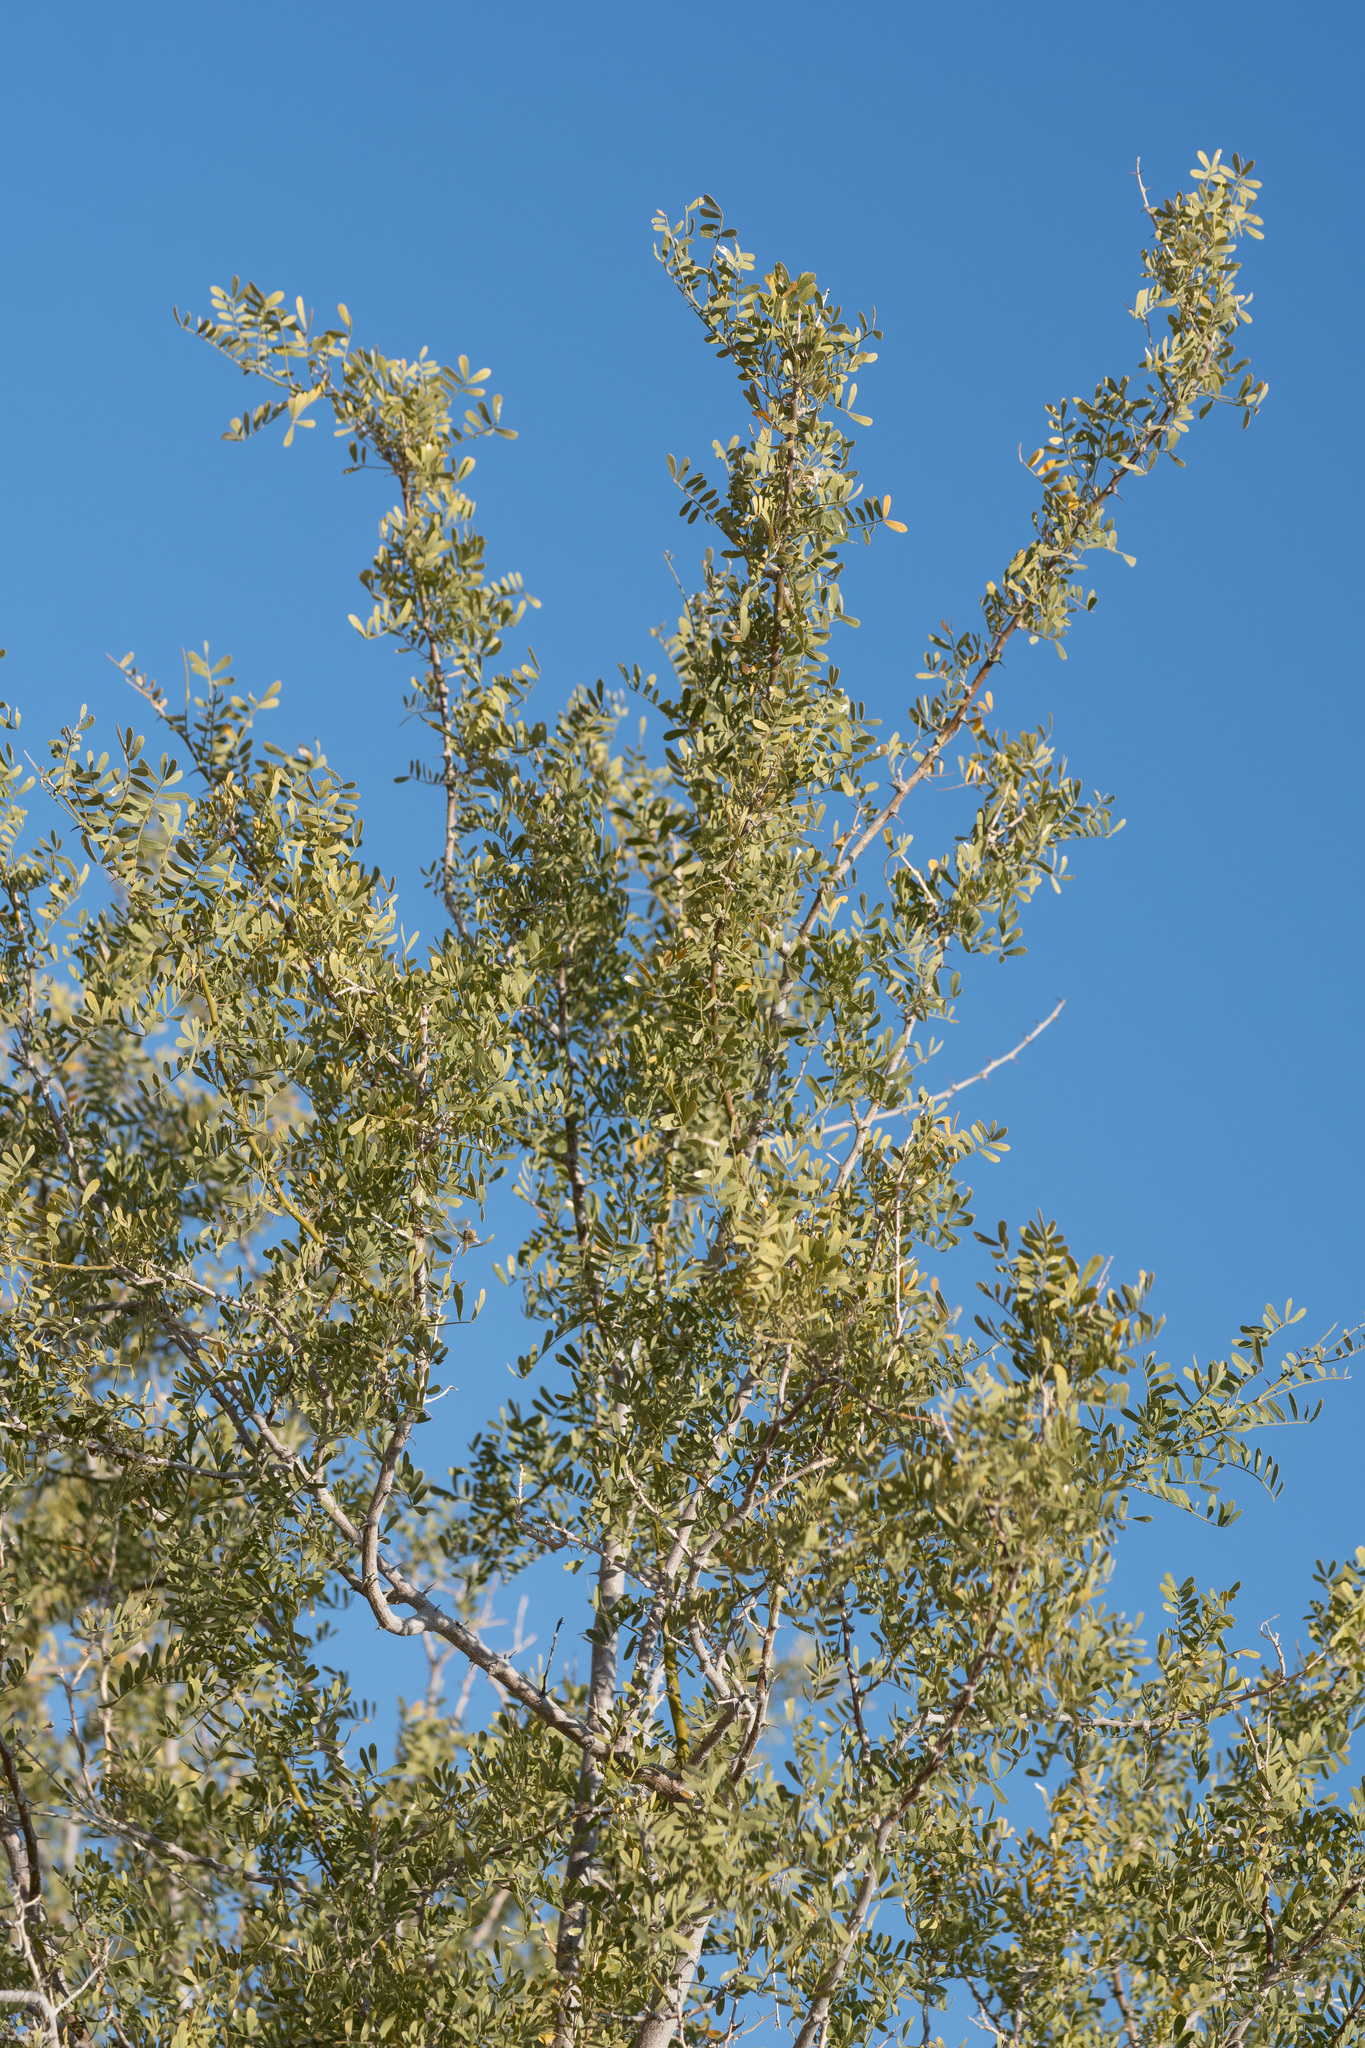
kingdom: Plantae
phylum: Tracheophyta
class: Magnoliopsida
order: Fabales
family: Fabaceae
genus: Olneya
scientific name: Olneya tesota
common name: Desert ironwood
